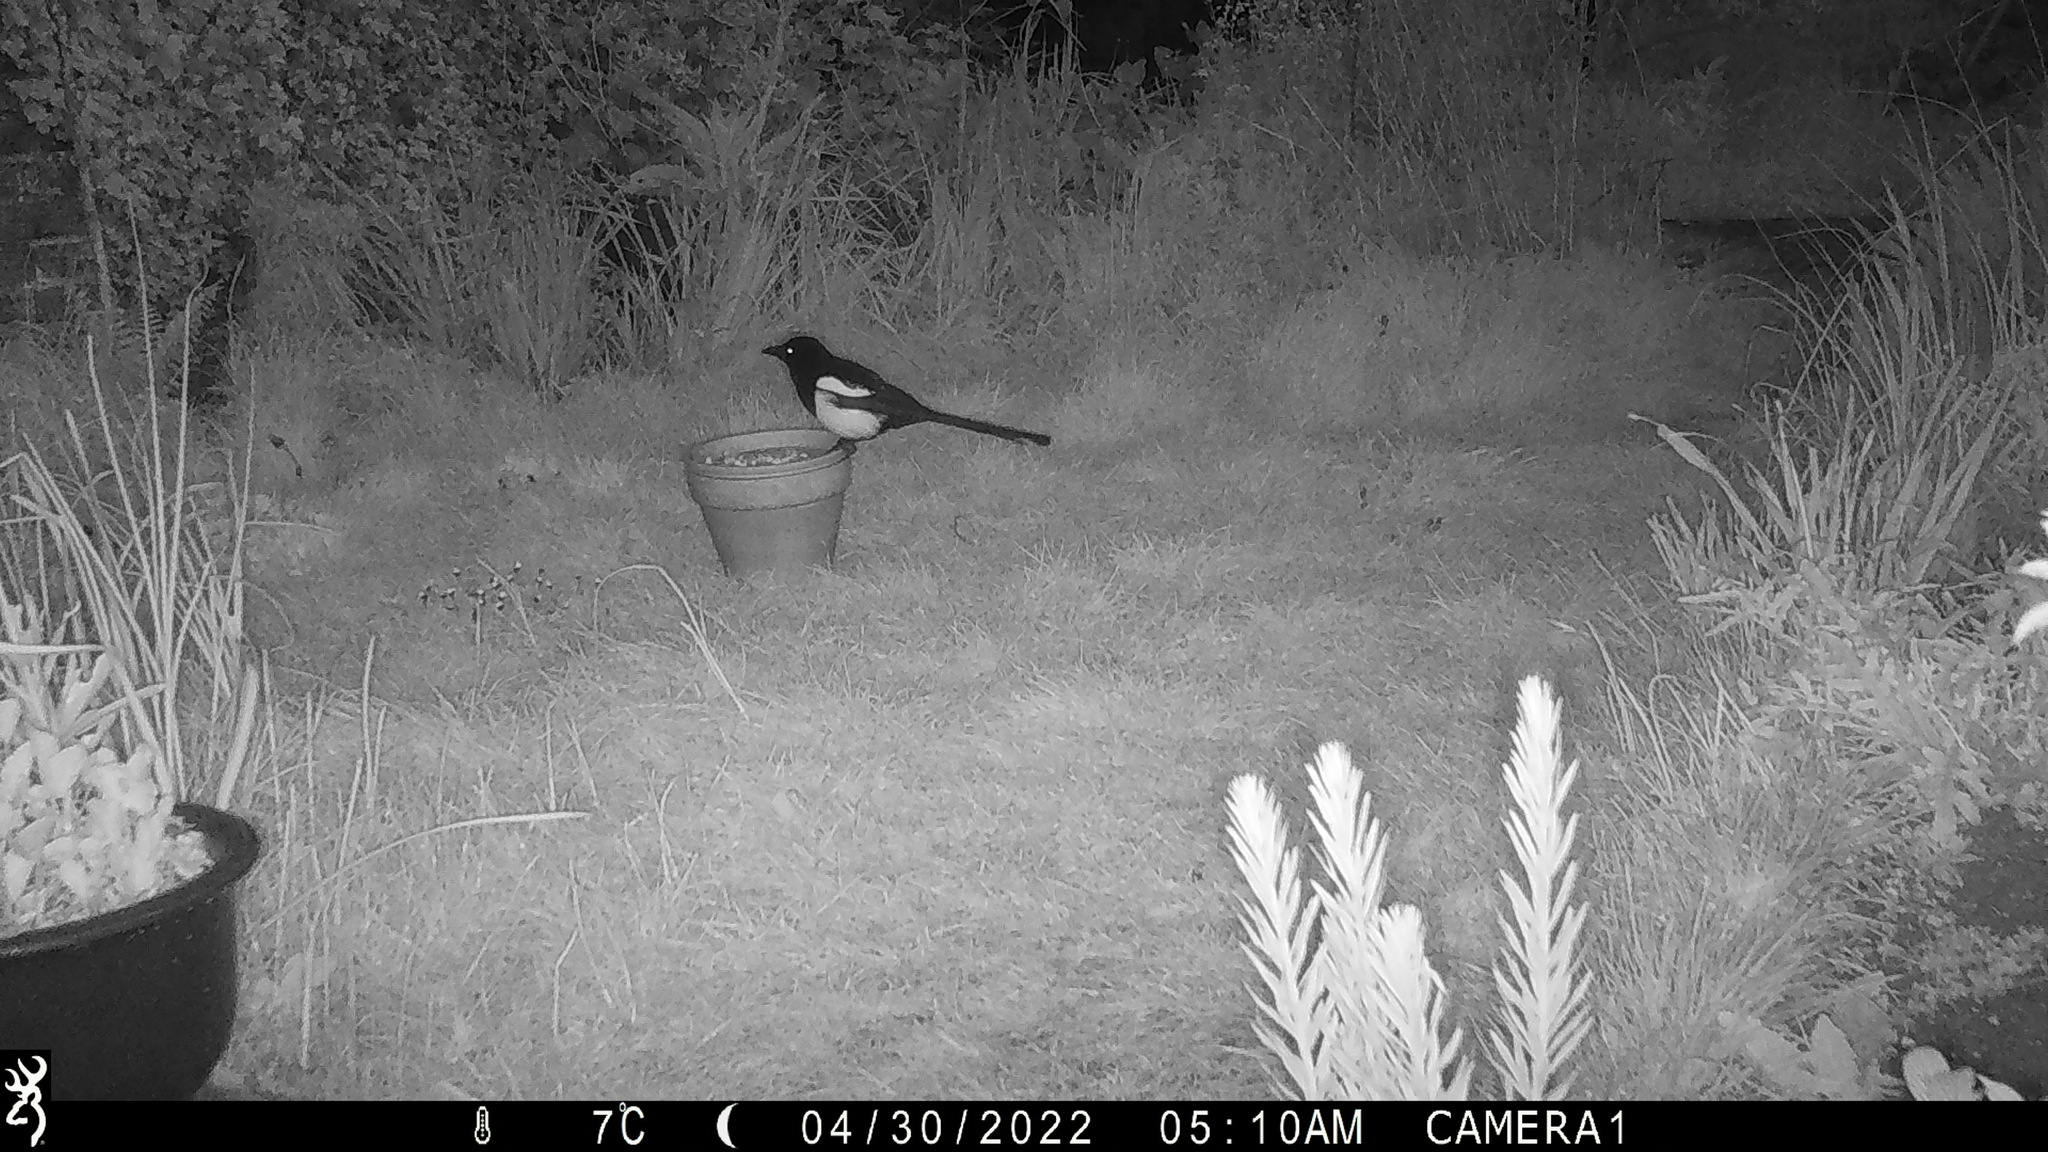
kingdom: Animalia
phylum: Chordata
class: Aves
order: Passeriformes
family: Corvidae
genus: Pica
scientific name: Pica pica
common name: Eurasian magpie
